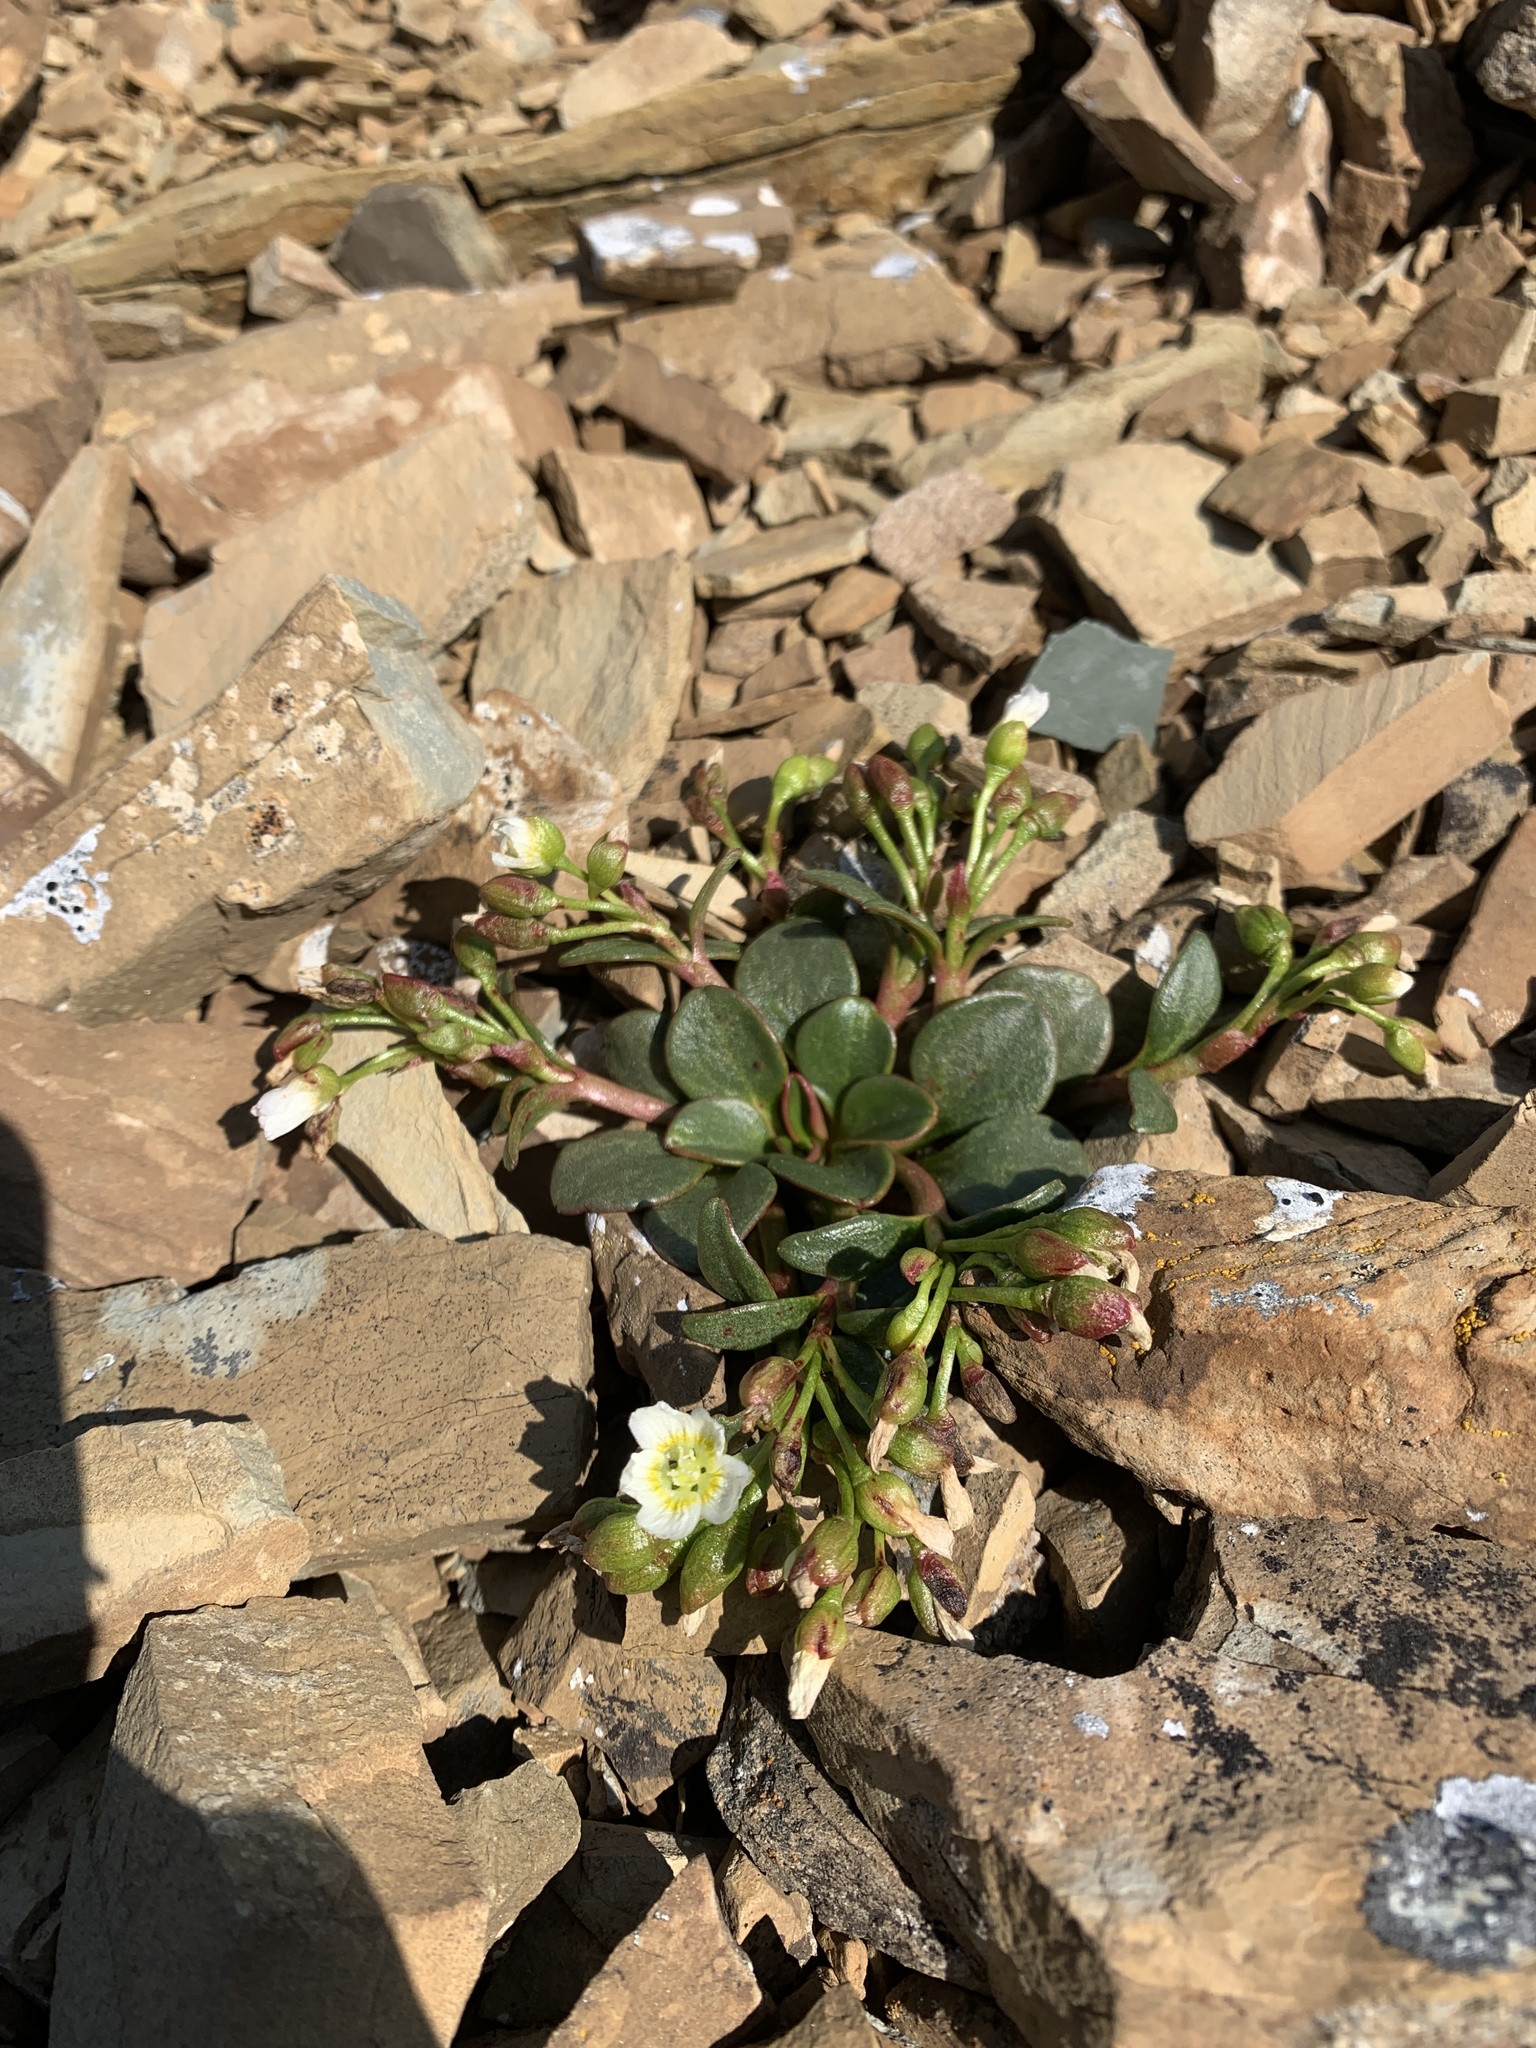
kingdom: Plantae
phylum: Tracheophyta
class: Magnoliopsida
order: Caryophyllales
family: Montiaceae
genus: Claytonia
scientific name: Claytonia megarhiza
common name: Alpine spring beauty
